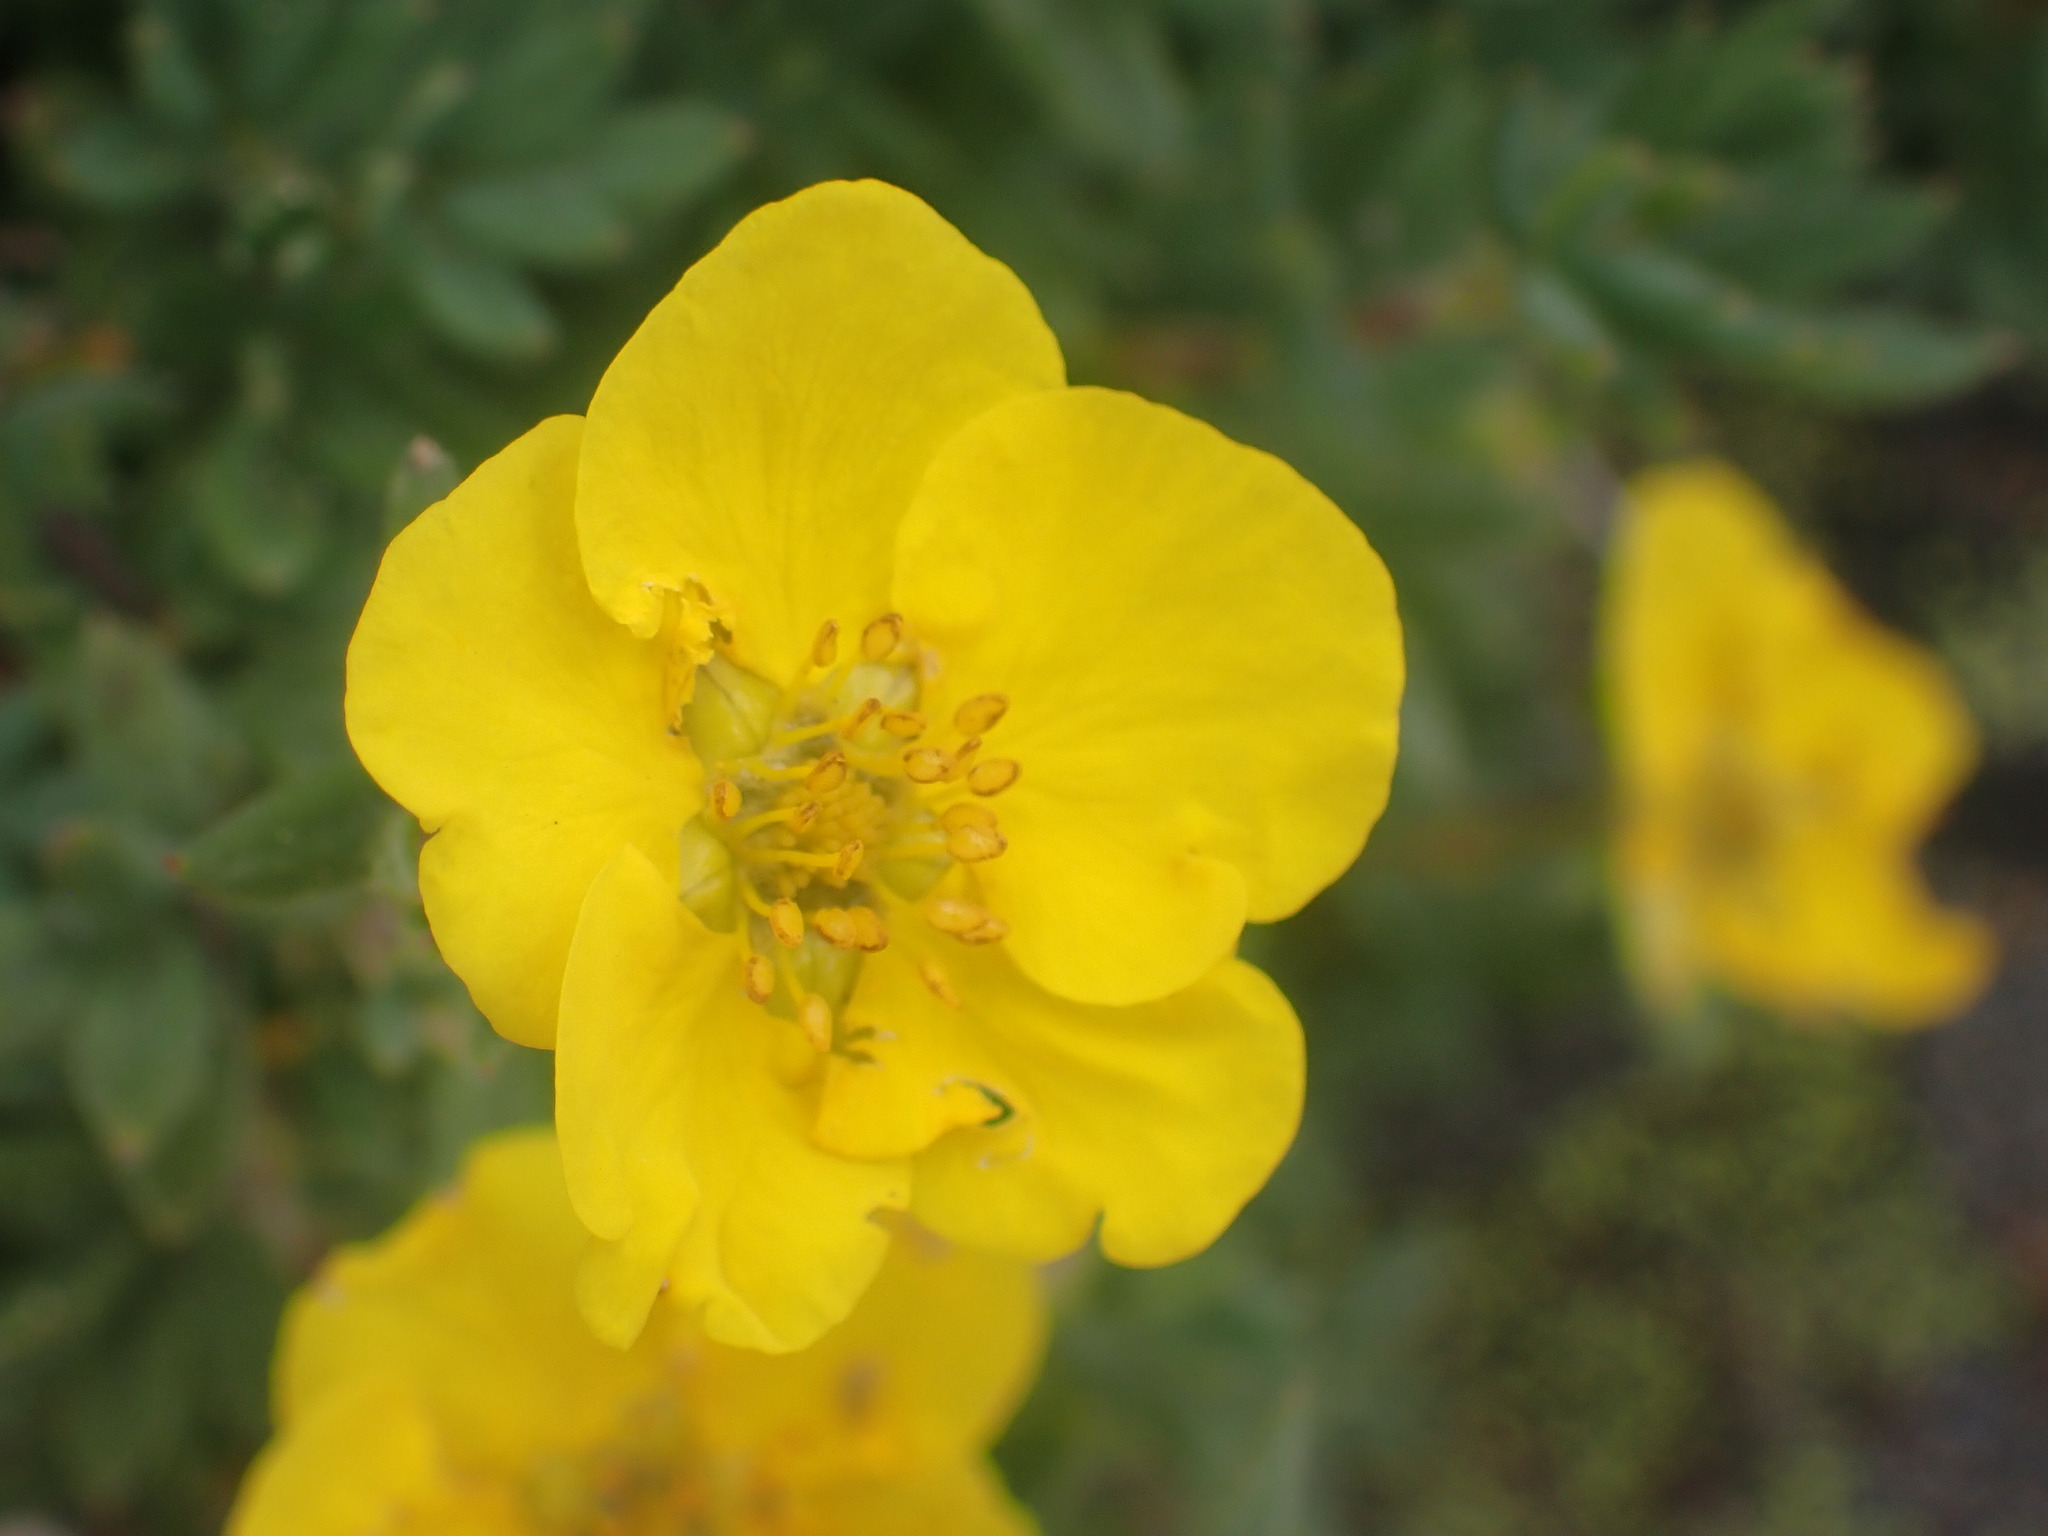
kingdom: Plantae
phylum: Tracheophyta
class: Magnoliopsida
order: Rosales
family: Rosaceae
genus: Dasiphora
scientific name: Dasiphora fruticosa
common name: Shrubby cinquefoil
